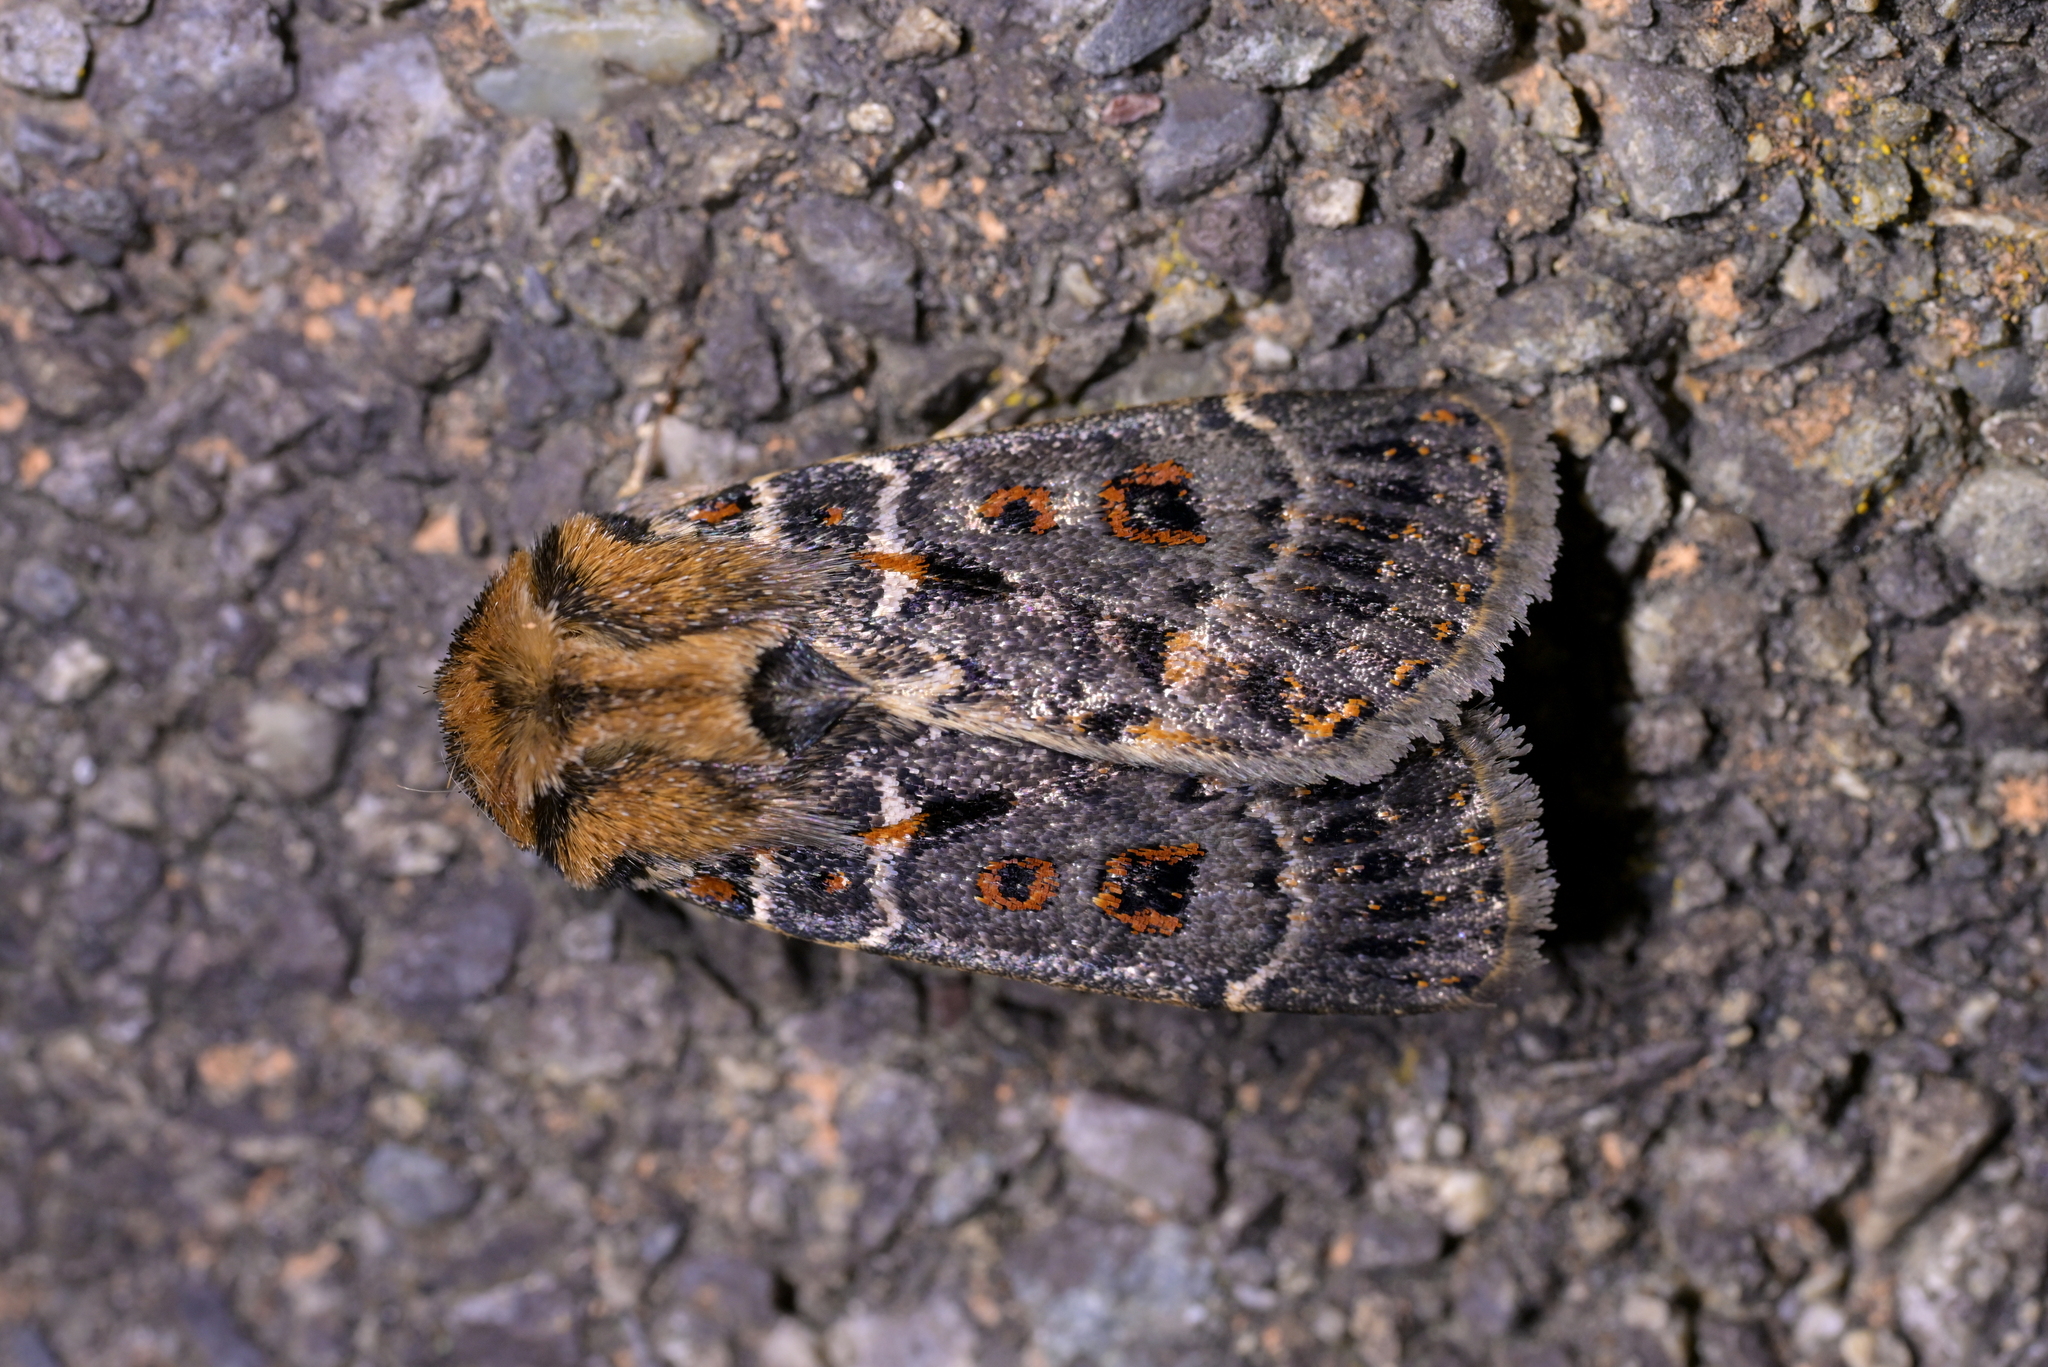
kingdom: Animalia
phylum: Arthropoda
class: Insecta
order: Lepidoptera
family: Noctuidae
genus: Proteuxoa
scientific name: Proteuxoa sanguinipuncta
